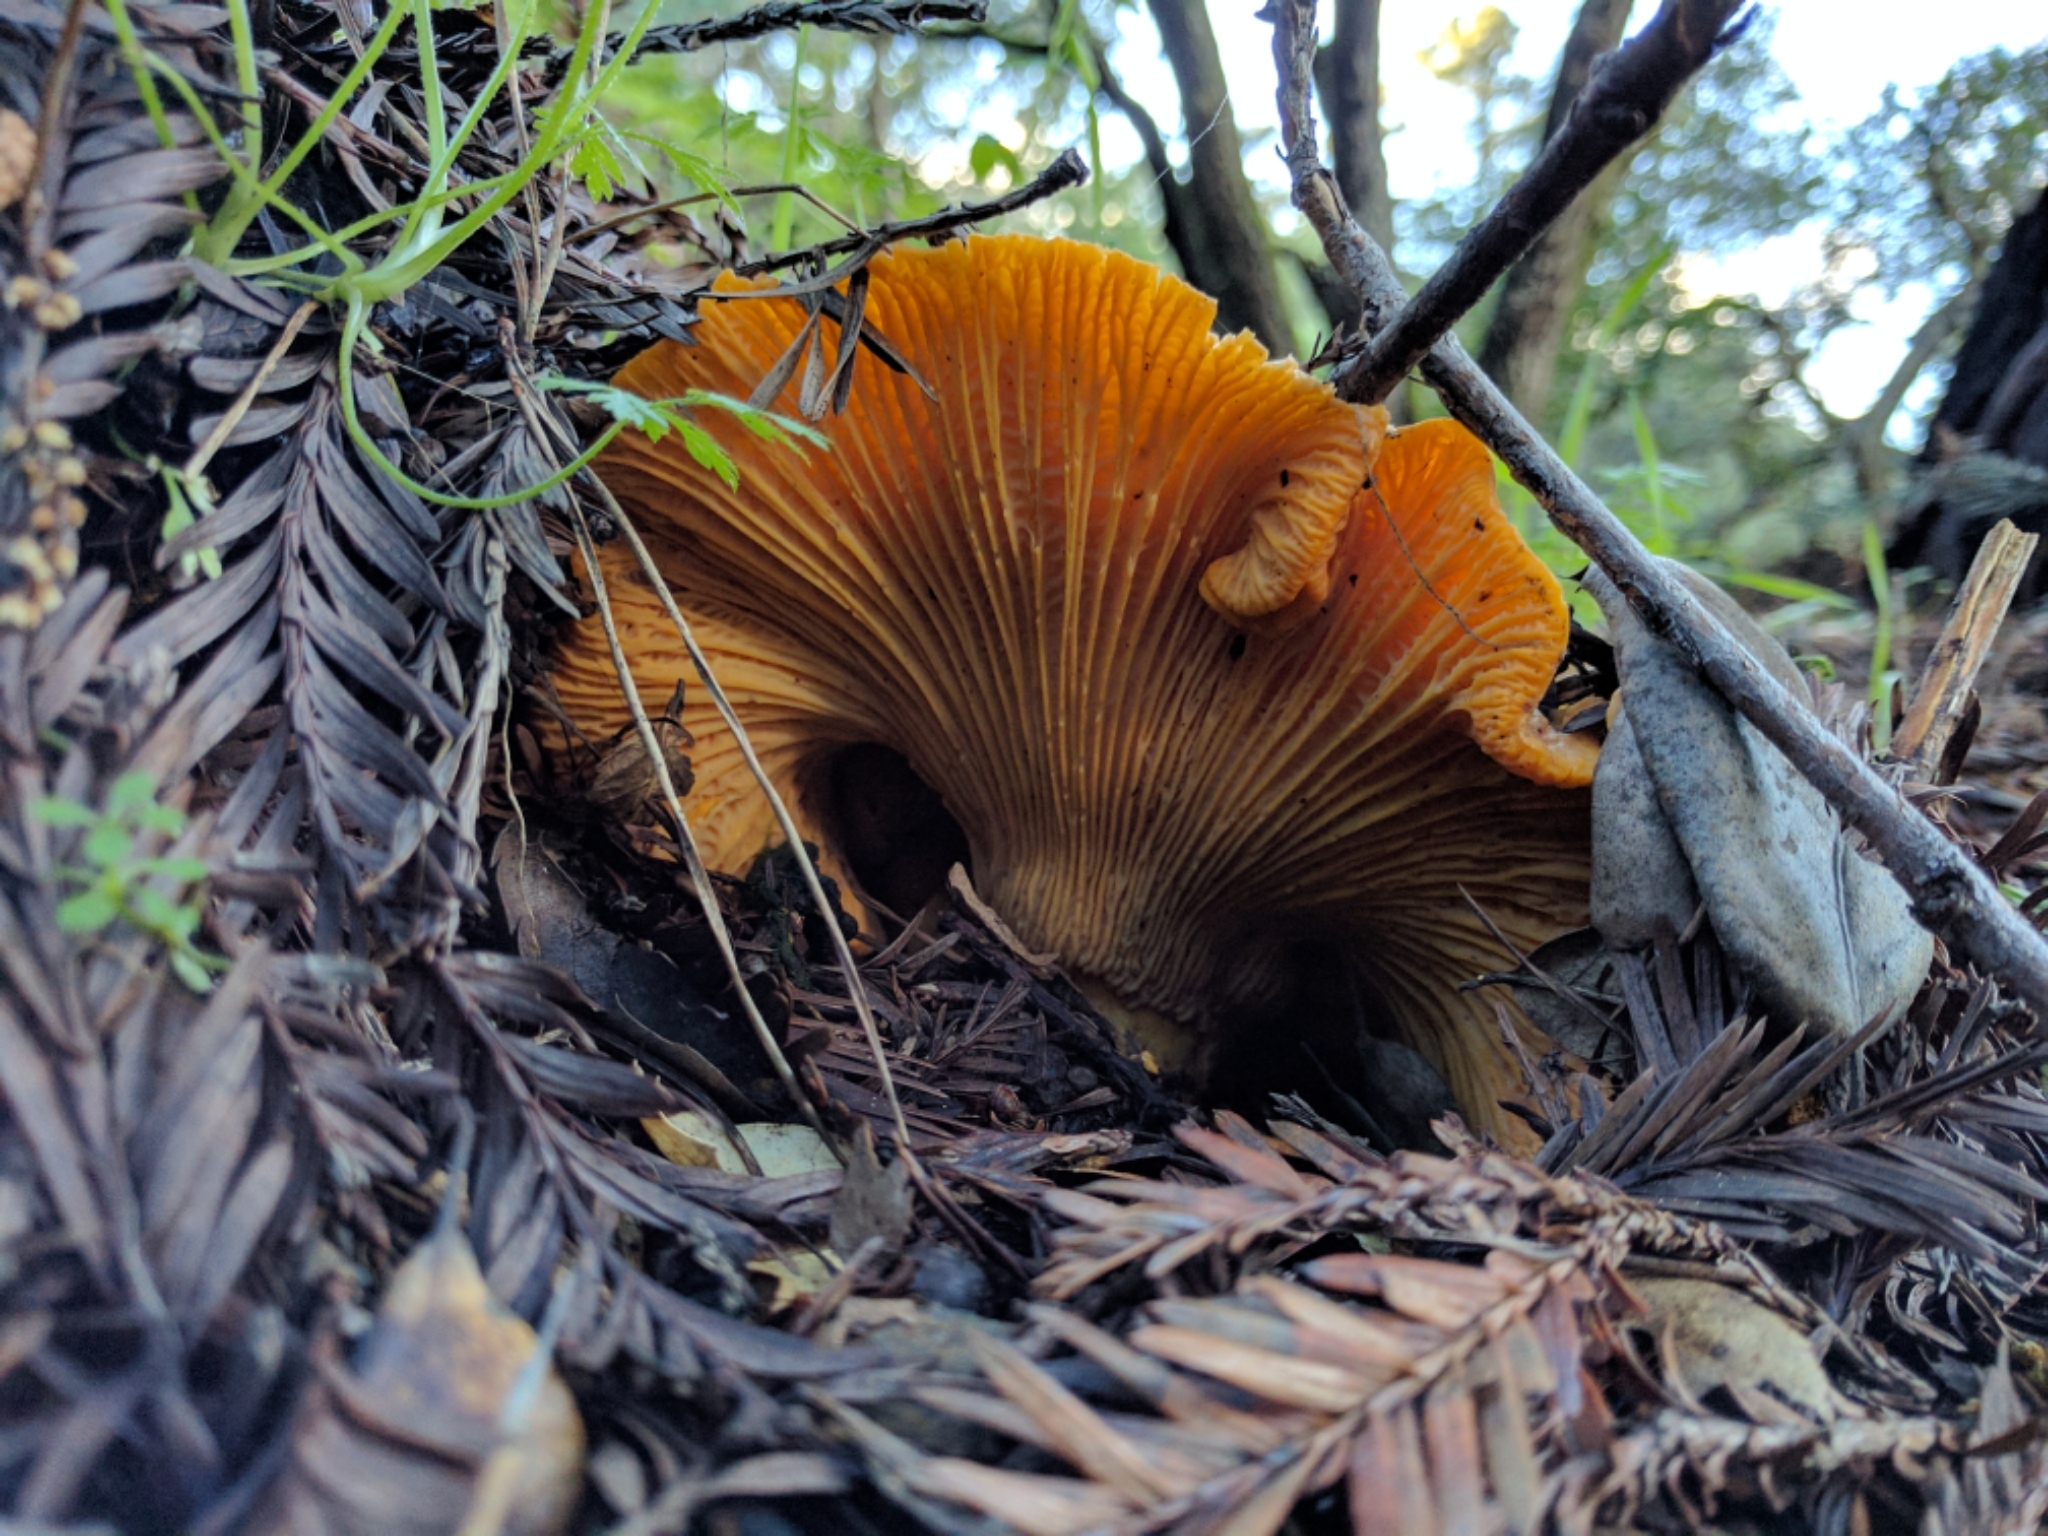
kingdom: Fungi
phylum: Basidiomycota
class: Agaricomycetes
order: Cantharellales
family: Hydnaceae
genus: Cantharellus
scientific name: Cantharellus californicus
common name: California golden chanterelle
